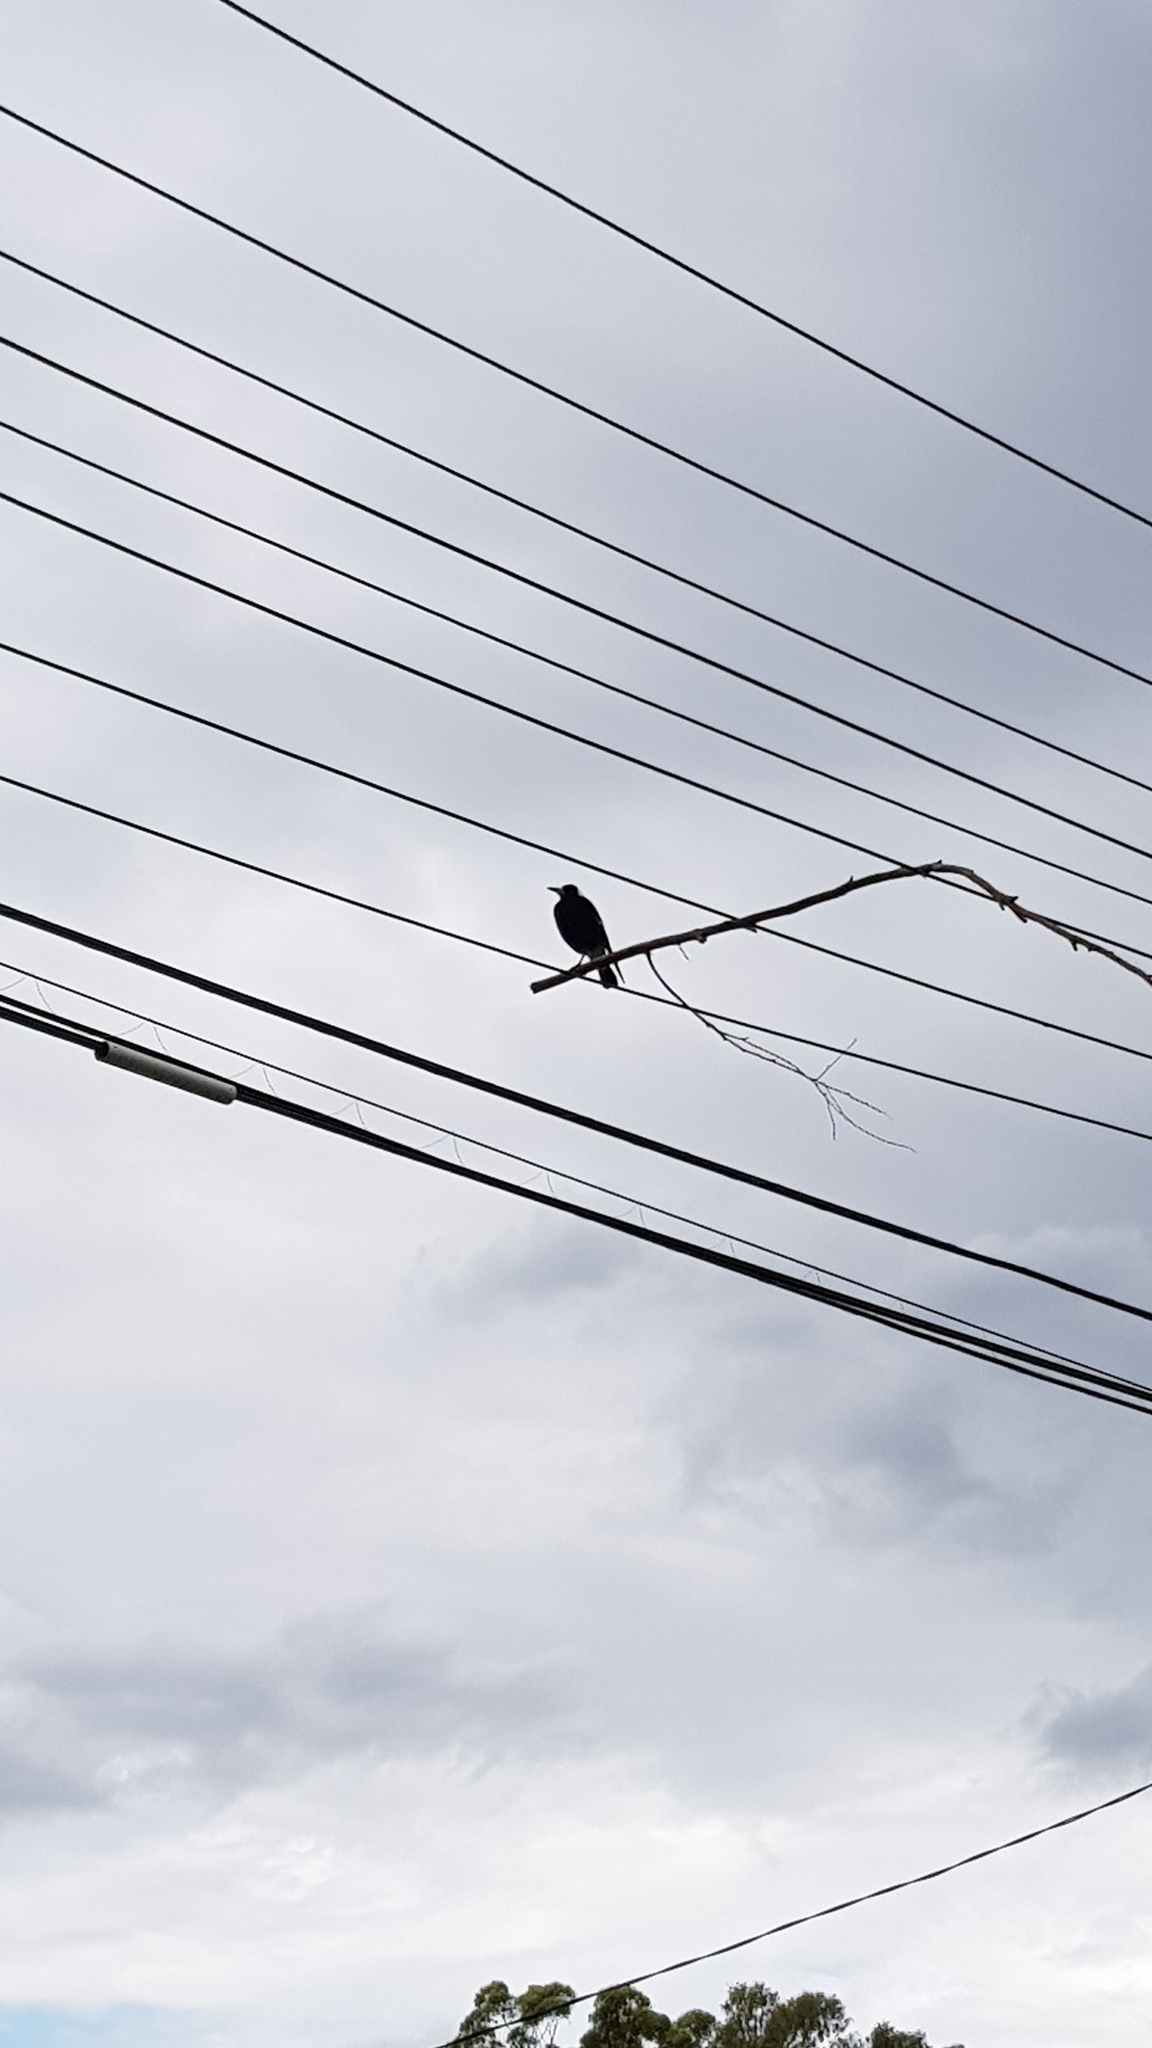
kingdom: Animalia
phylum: Chordata
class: Aves
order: Passeriformes
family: Cracticidae
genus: Gymnorhina
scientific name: Gymnorhina tibicen
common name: Australian magpie
